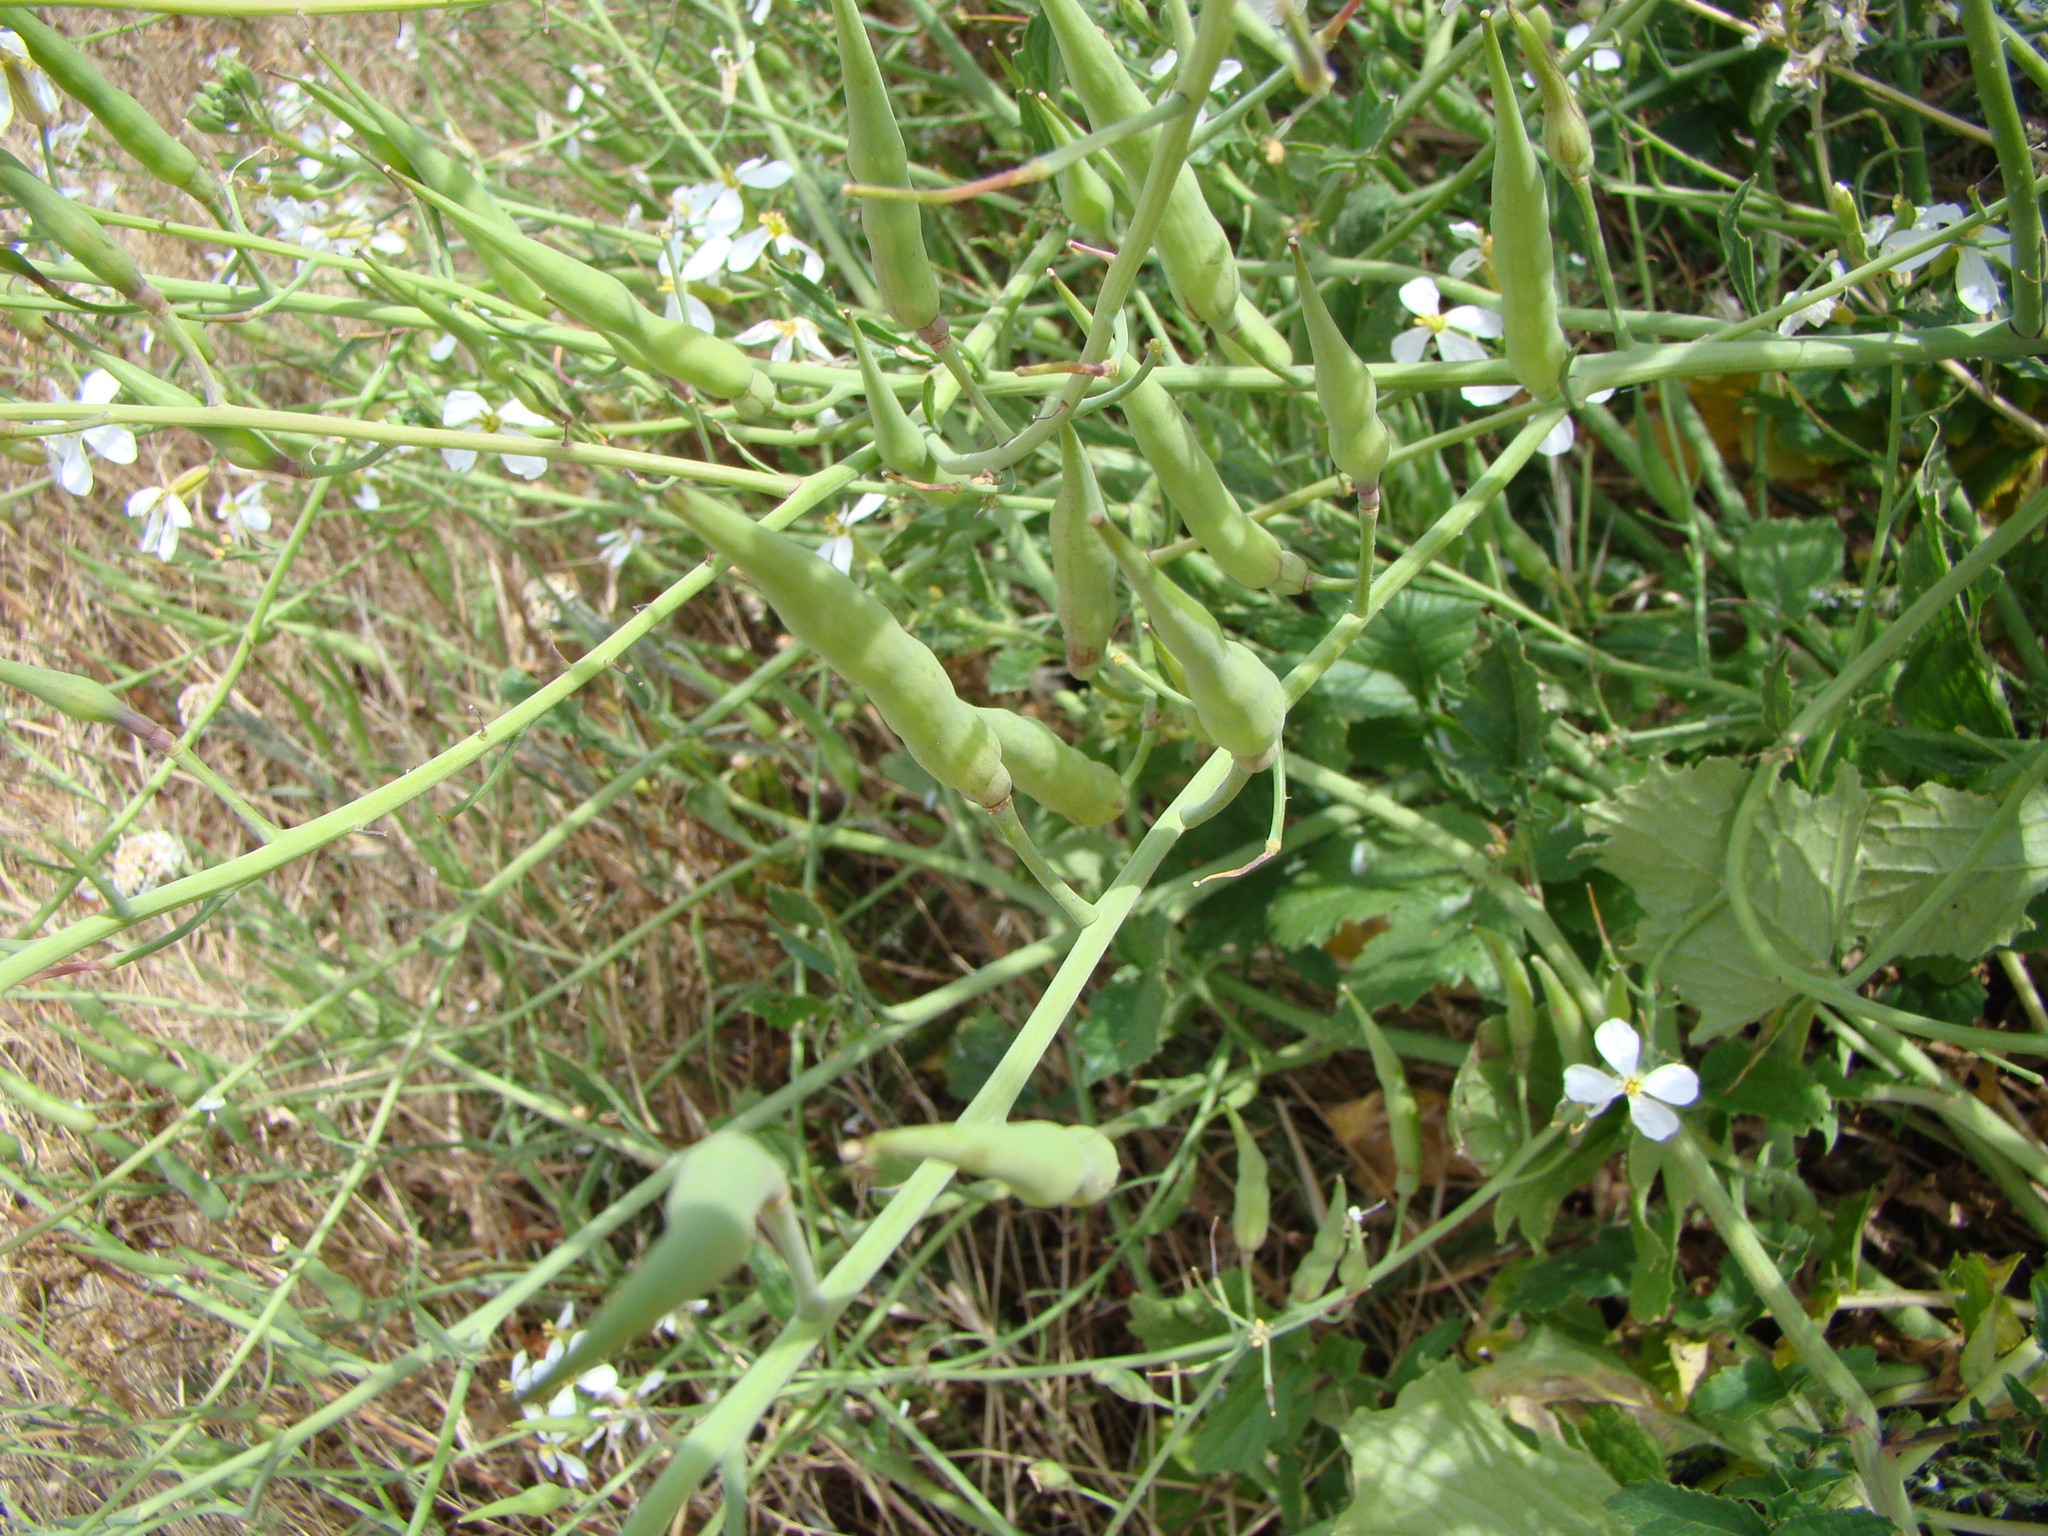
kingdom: Plantae
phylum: Tracheophyta
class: Magnoliopsida
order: Brassicales
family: Brassicaceae
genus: Raphanus
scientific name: Raphanus raphanistrum
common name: Wild radish
